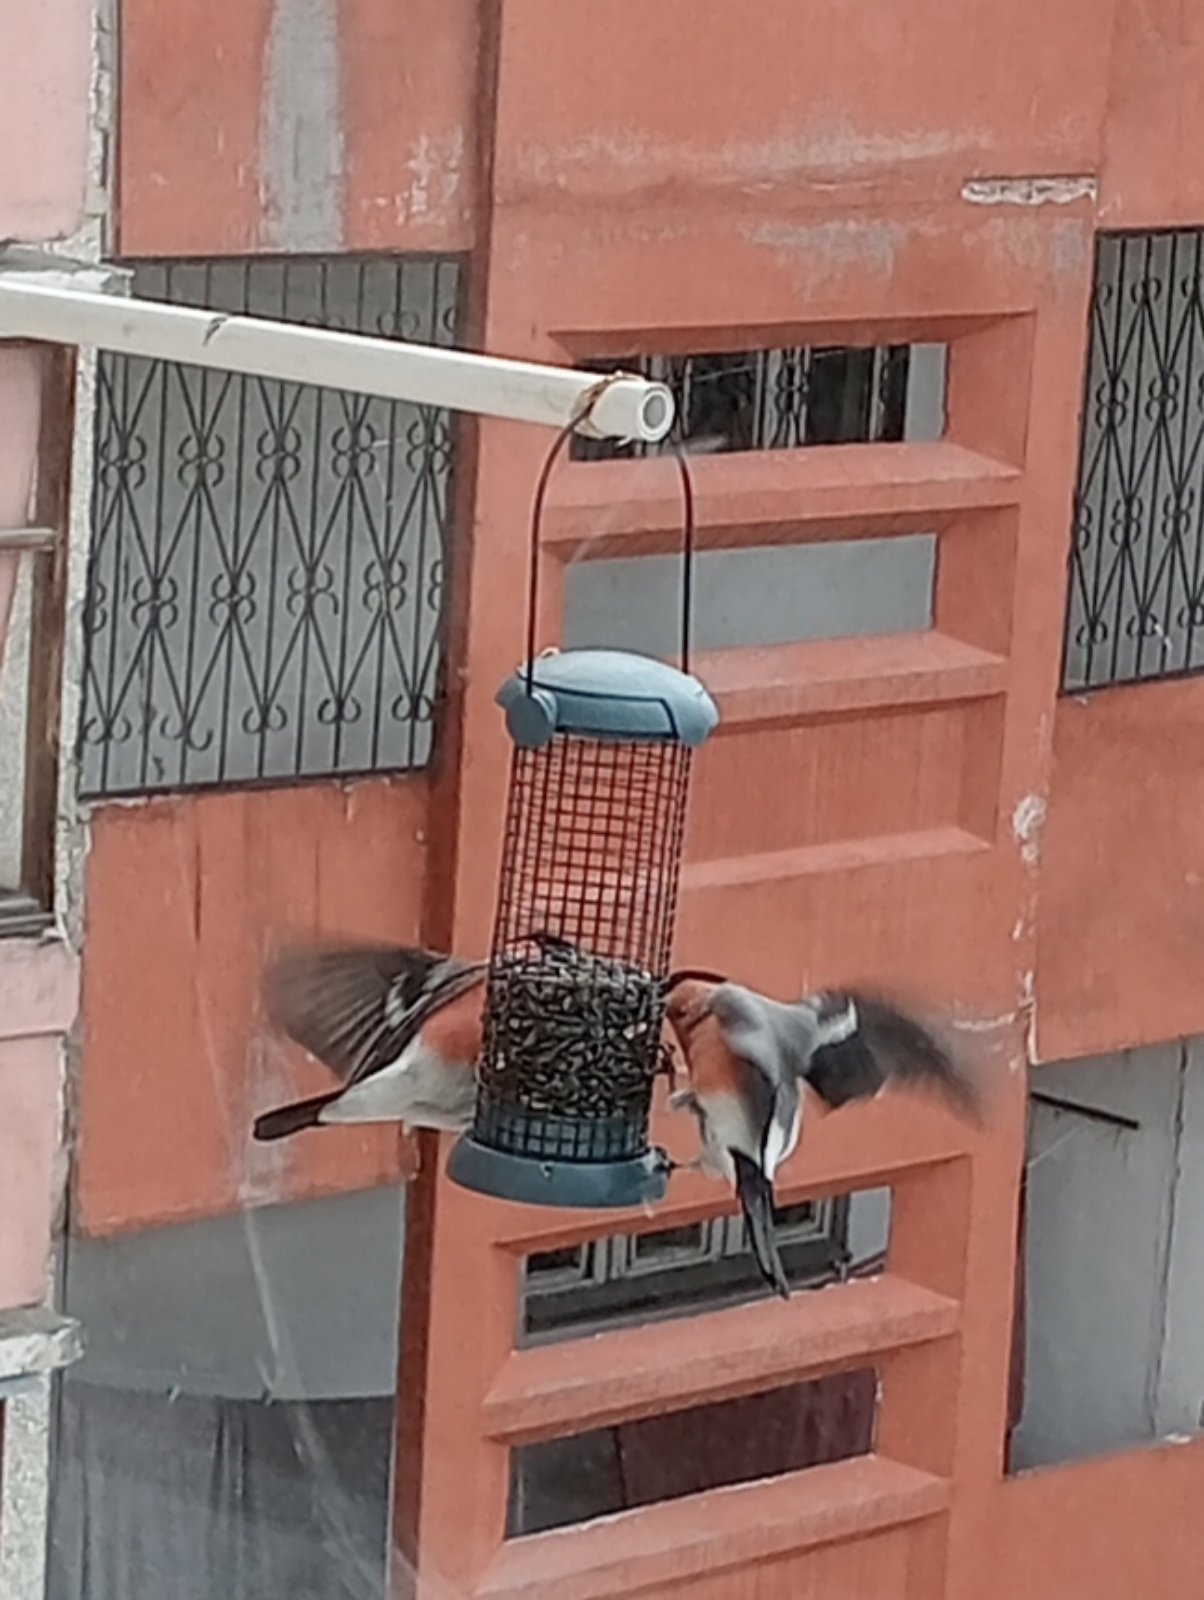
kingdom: Animalia
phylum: Chordata
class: Aves
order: Passeriformes
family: Fringillidae
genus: Pyrrhula
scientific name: Pyrrhula pyrrhula
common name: Eurasian bullfinch
